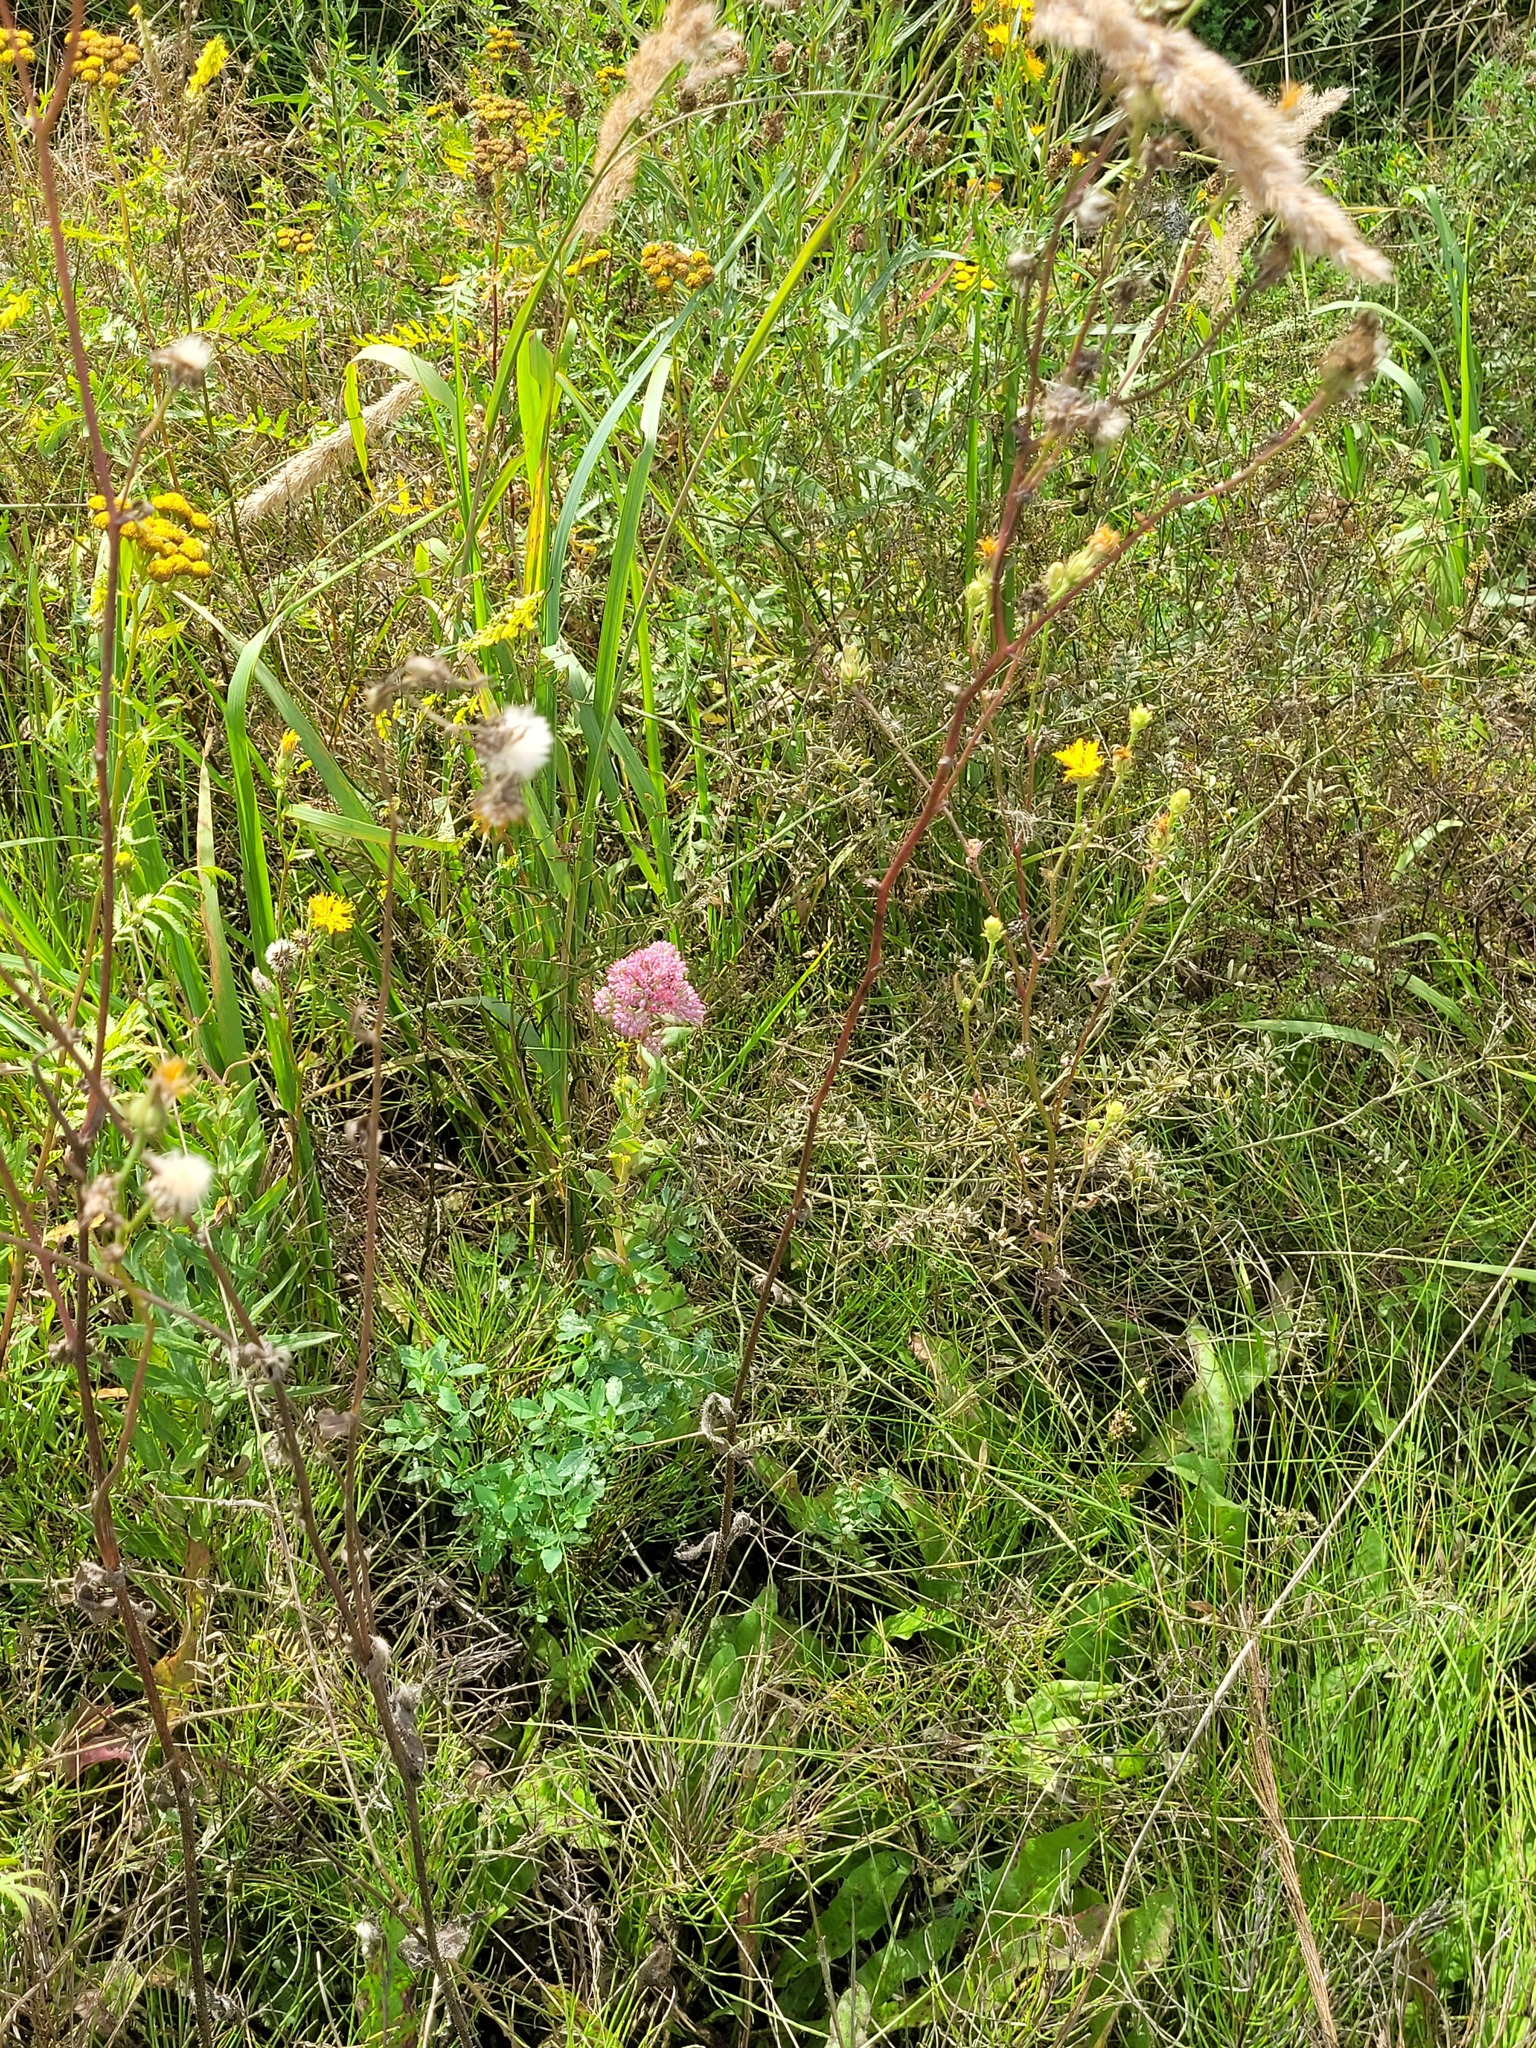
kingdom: Plantae
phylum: Tracheophyta
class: Magnoliopsida
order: Saxifragales
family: Crassulaceae
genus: Hylotelephium
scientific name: Hylotelephium telephium
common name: Live-forever
